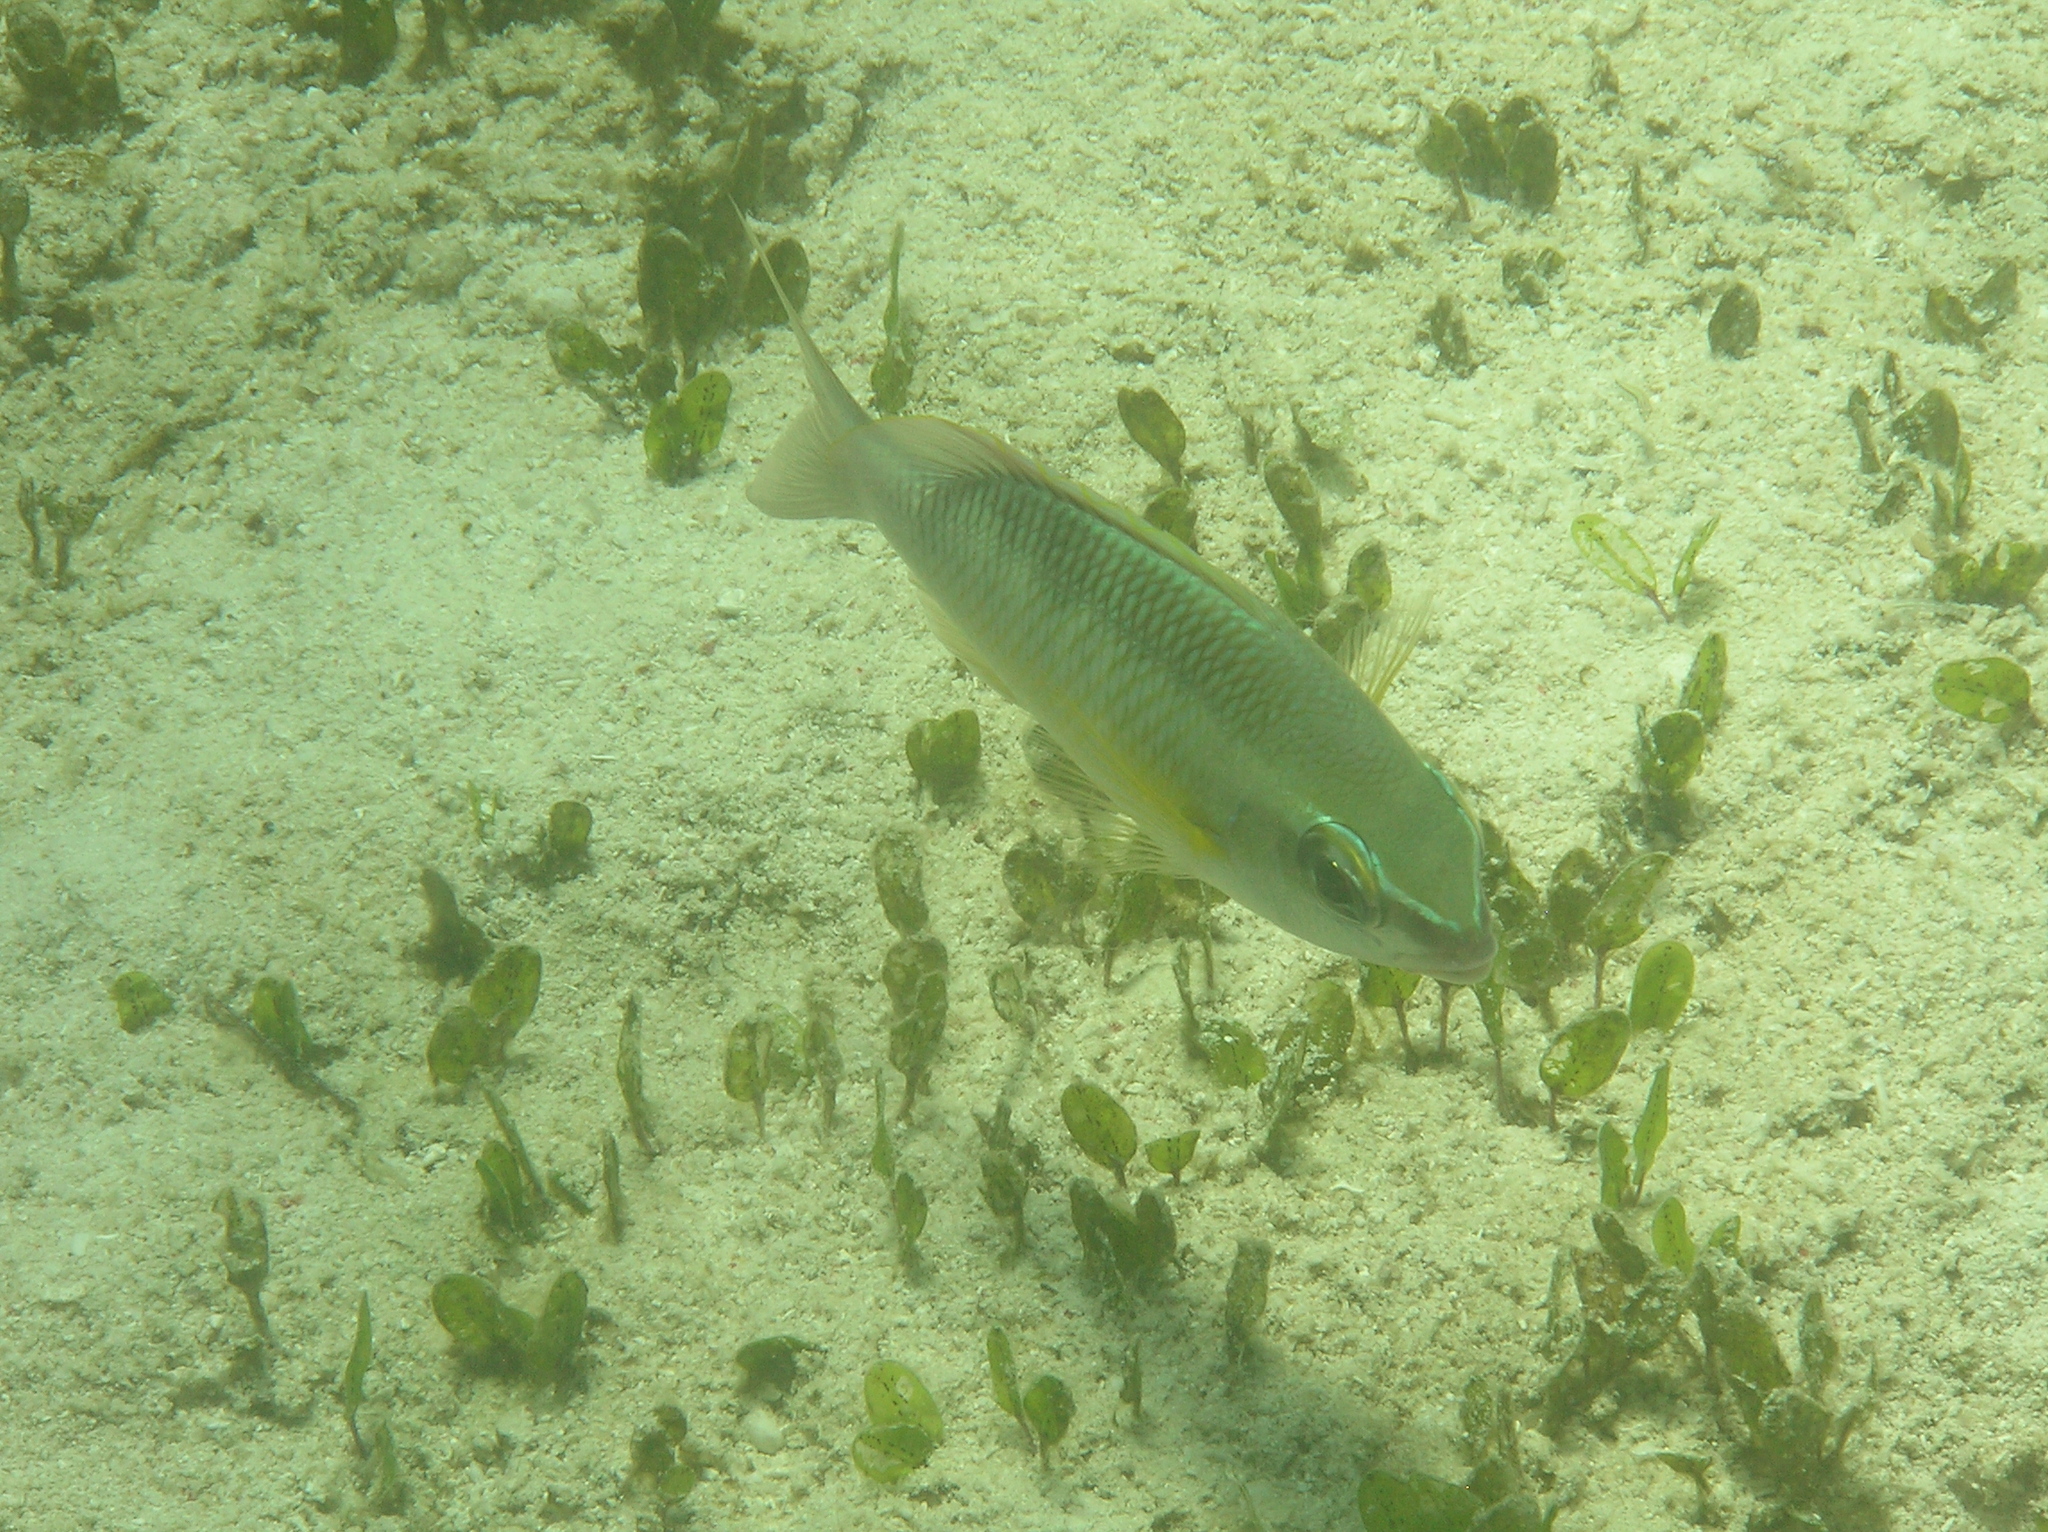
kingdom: Animalia
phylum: Chordata
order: Perciformes
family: Nemipteridae
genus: Scolopsis
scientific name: Scolopsis margaritifera
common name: Pearly monocle bream
